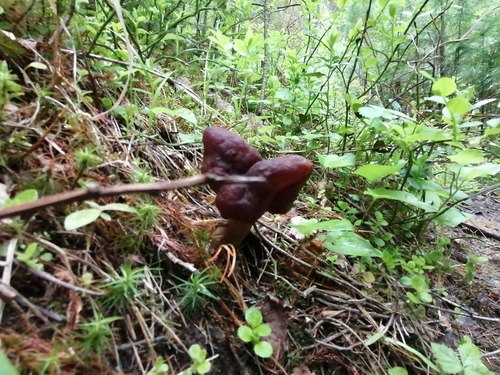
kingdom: Fungi
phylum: Ascomycota
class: Pezizomycetes
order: Pezizales
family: Discinaceae
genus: Gyromitra
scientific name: Gyromitra infula
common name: Pouched false morel
